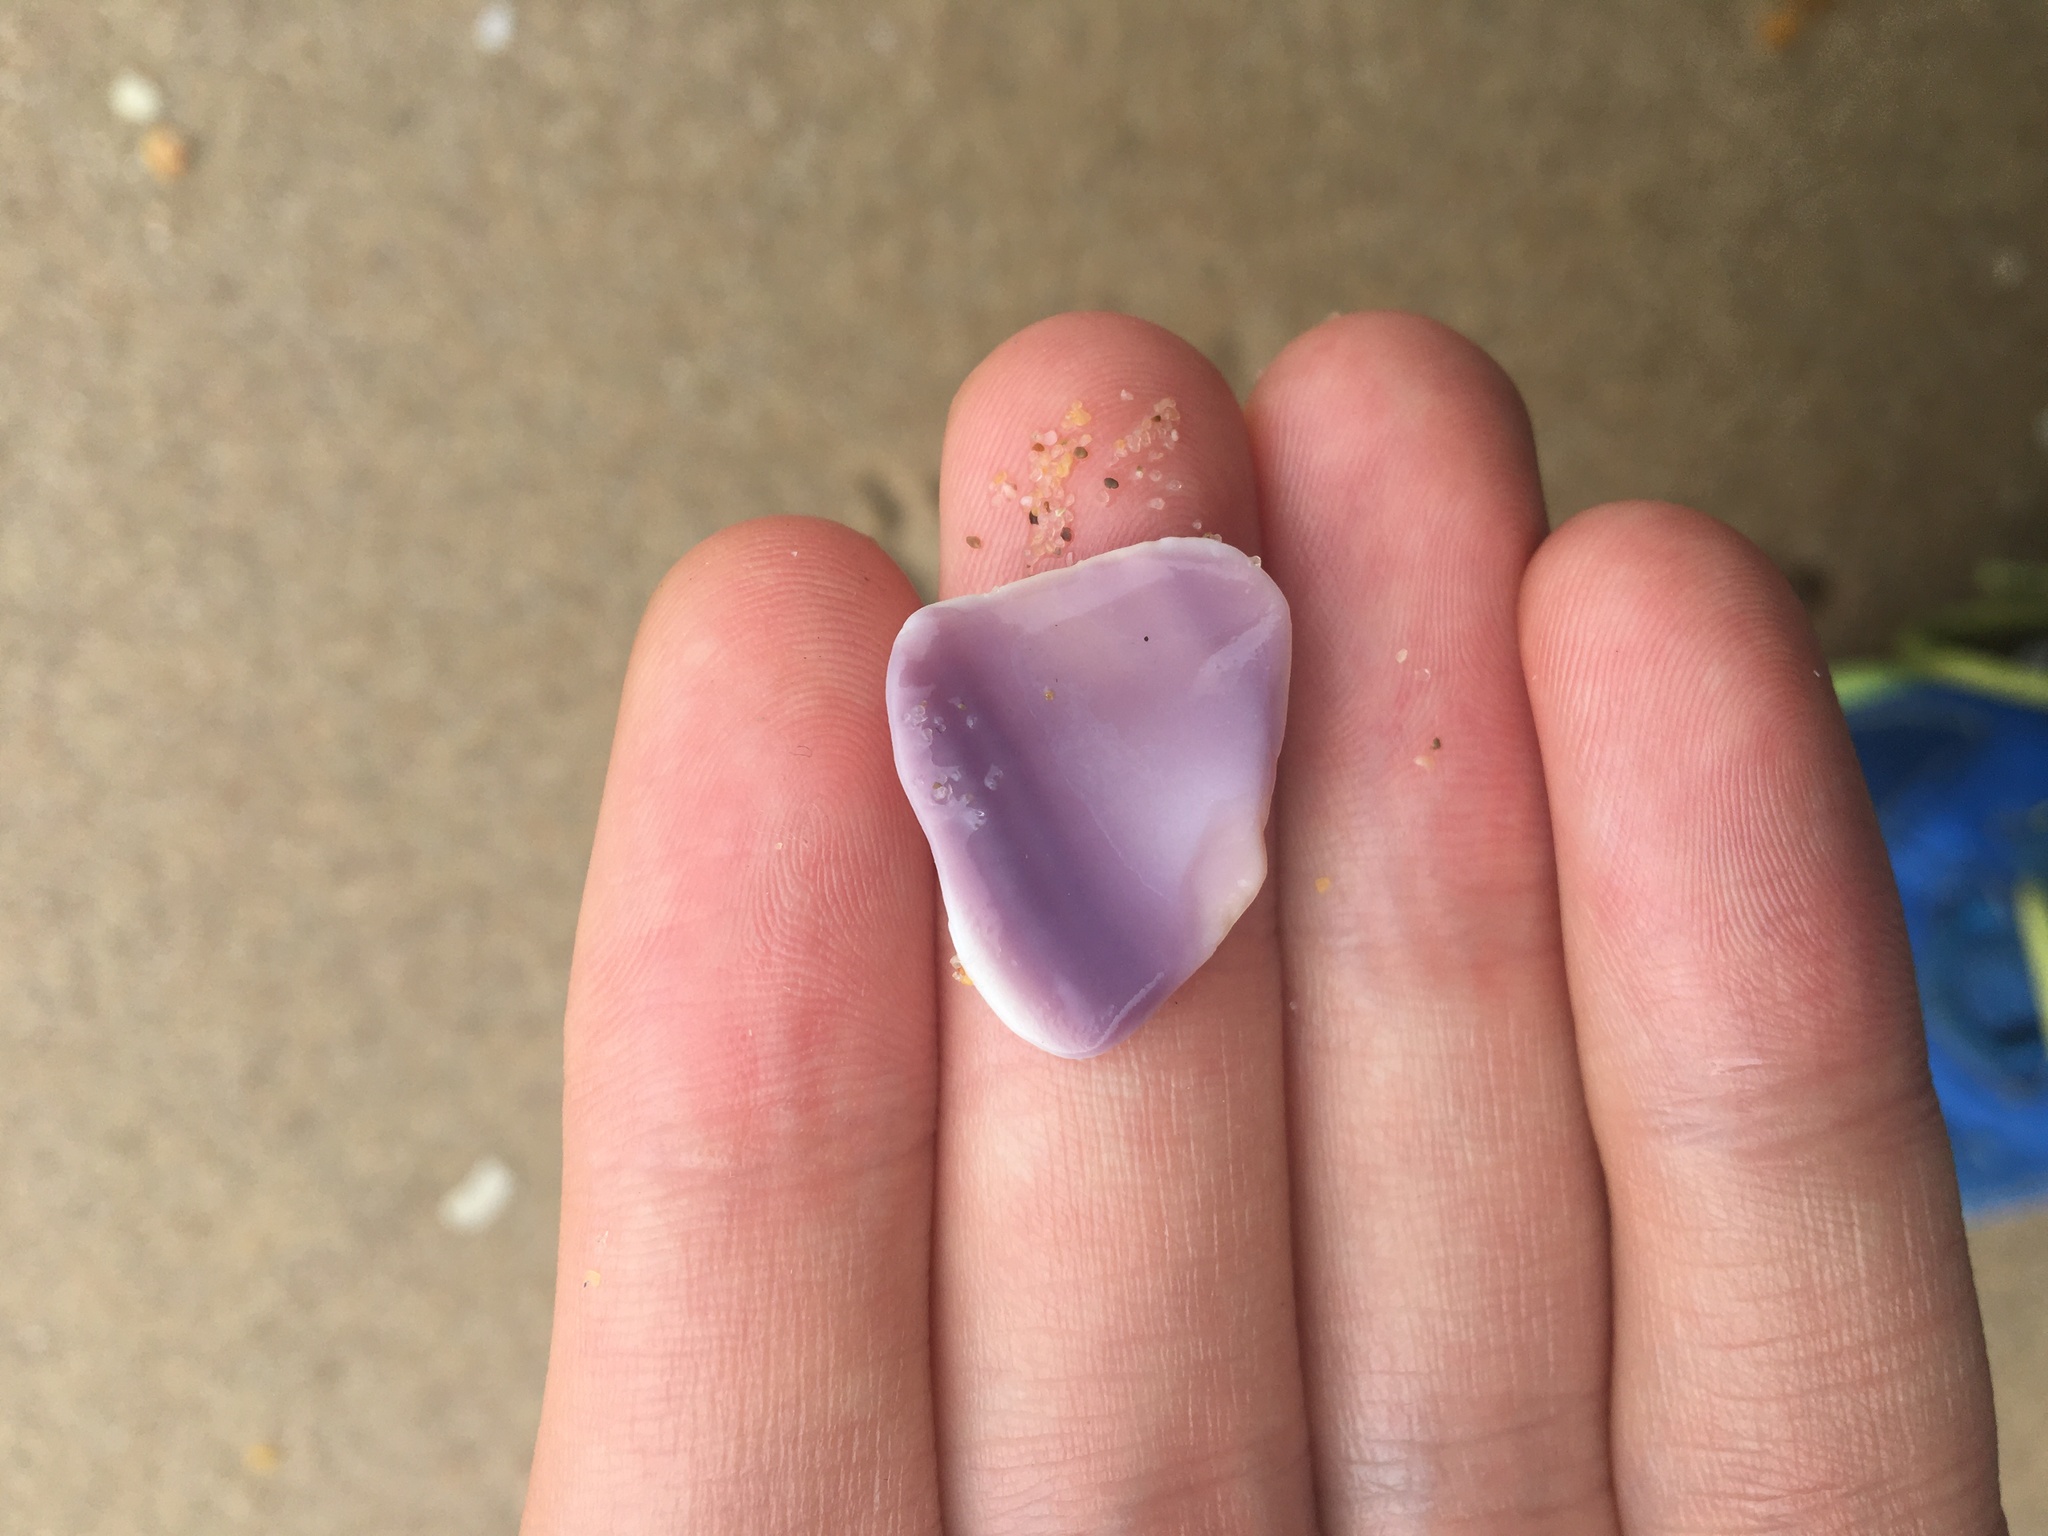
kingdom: Animalia
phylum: Mollusca
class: Bivalvia
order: Cardiida
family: Donacidae
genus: Latona
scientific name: Latona deltoides
